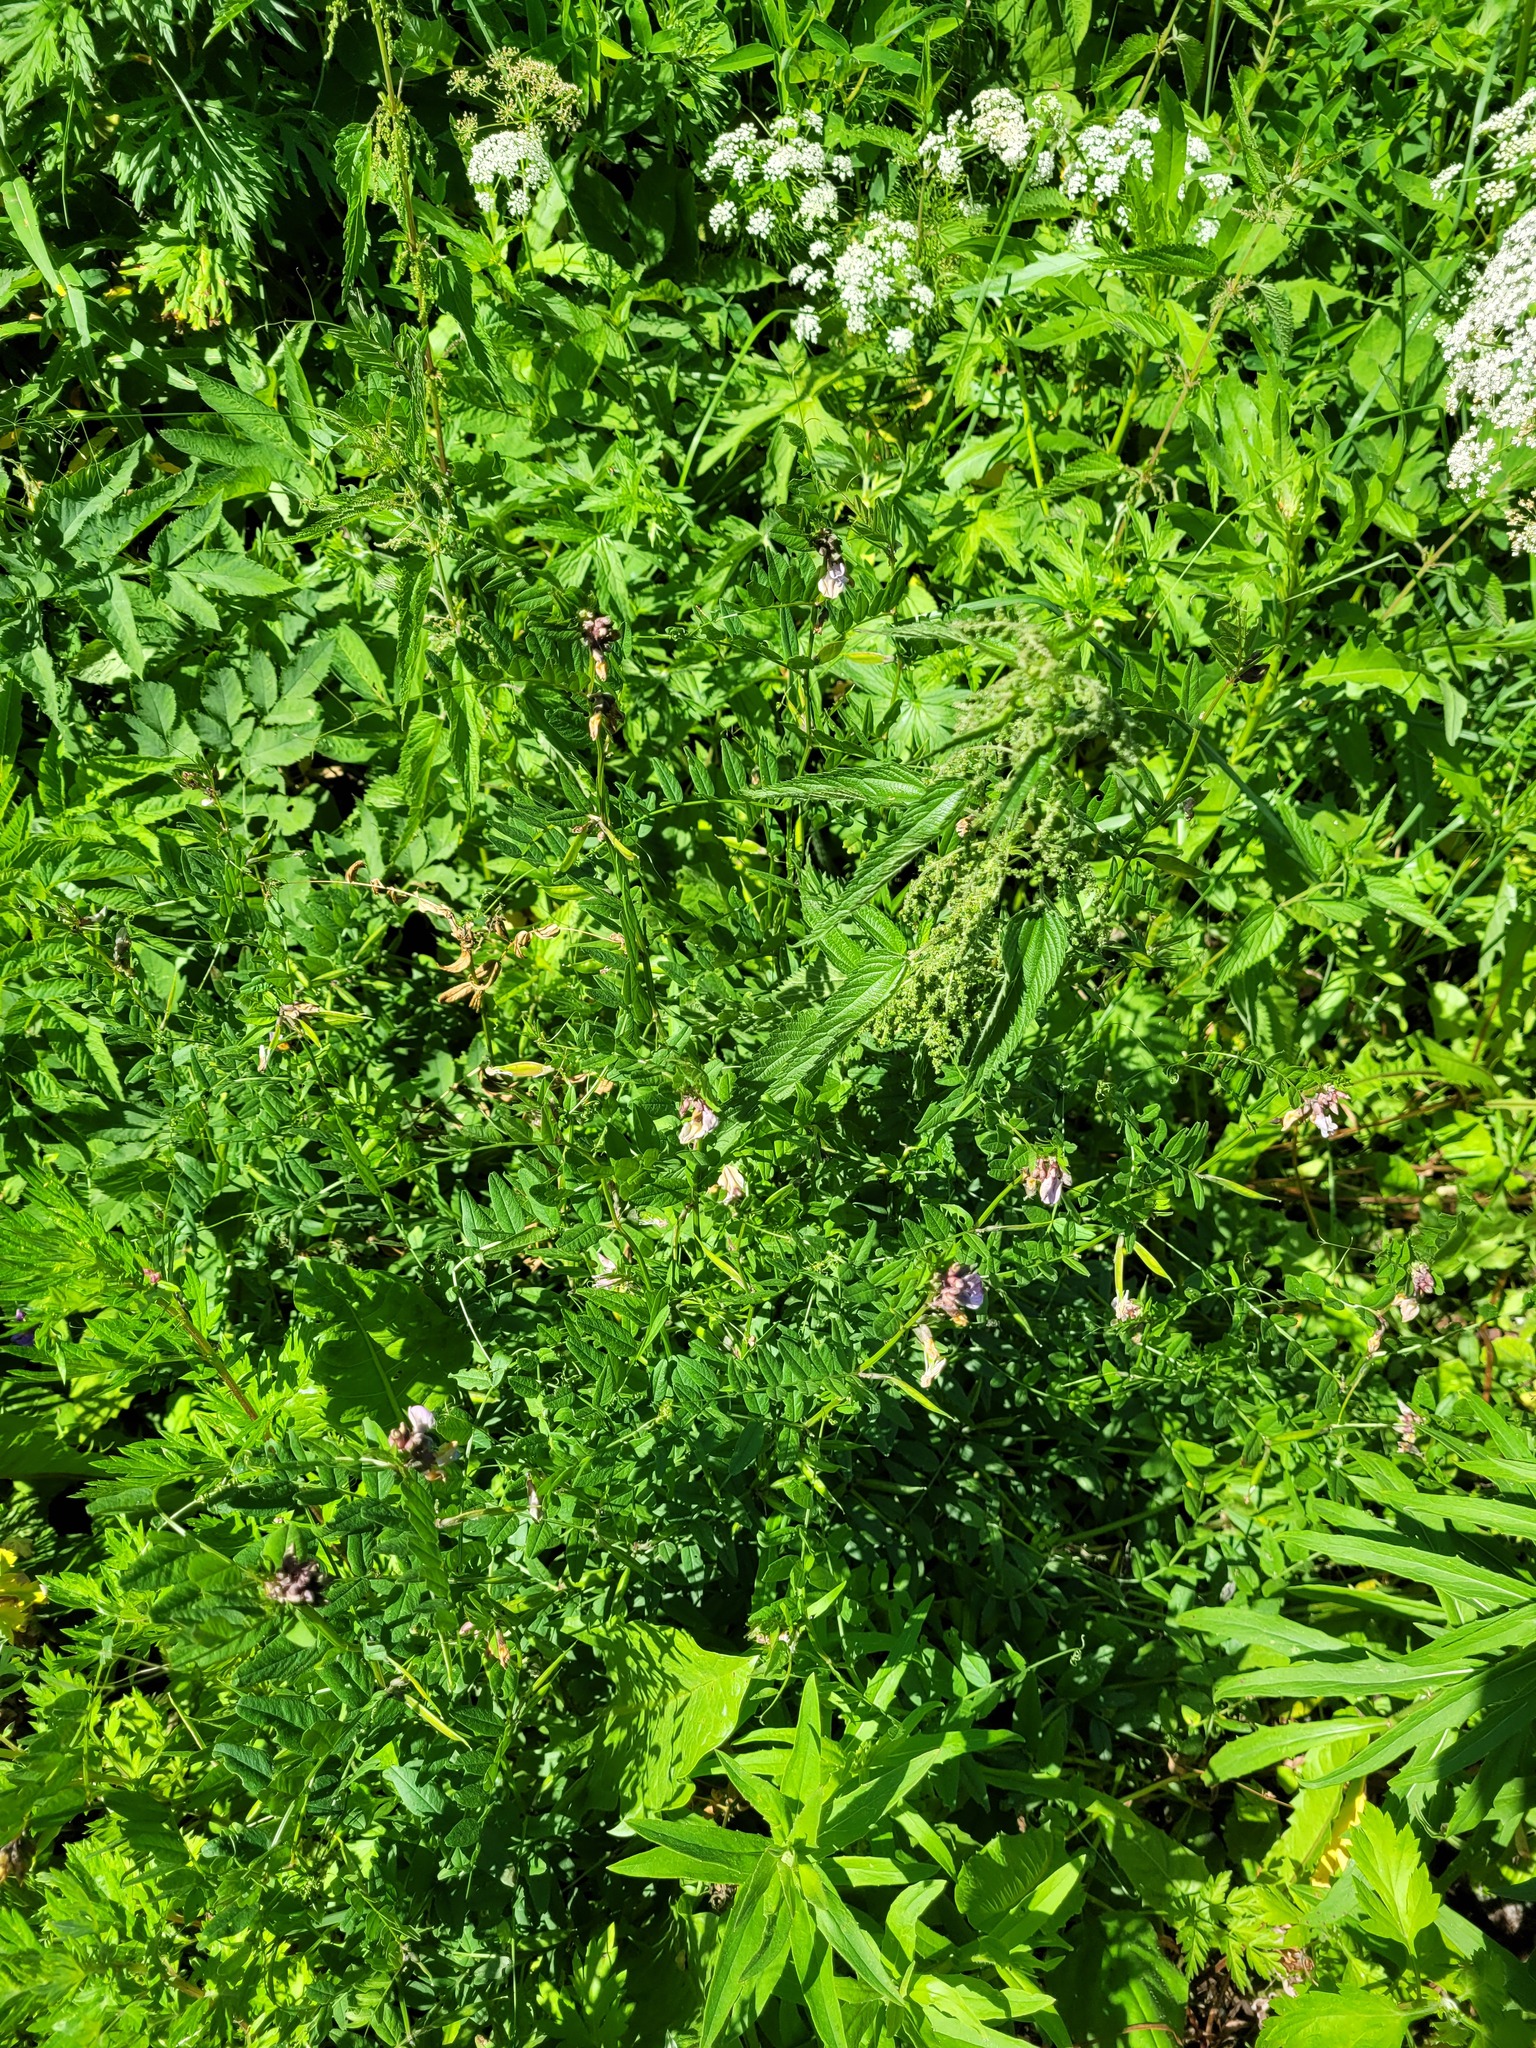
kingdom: Plantae
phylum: Tracheophyta
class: Magnoliopsida
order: Fabales
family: Fabaceae
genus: Vicia
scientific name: Vicia sepium
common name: Bush vetch
